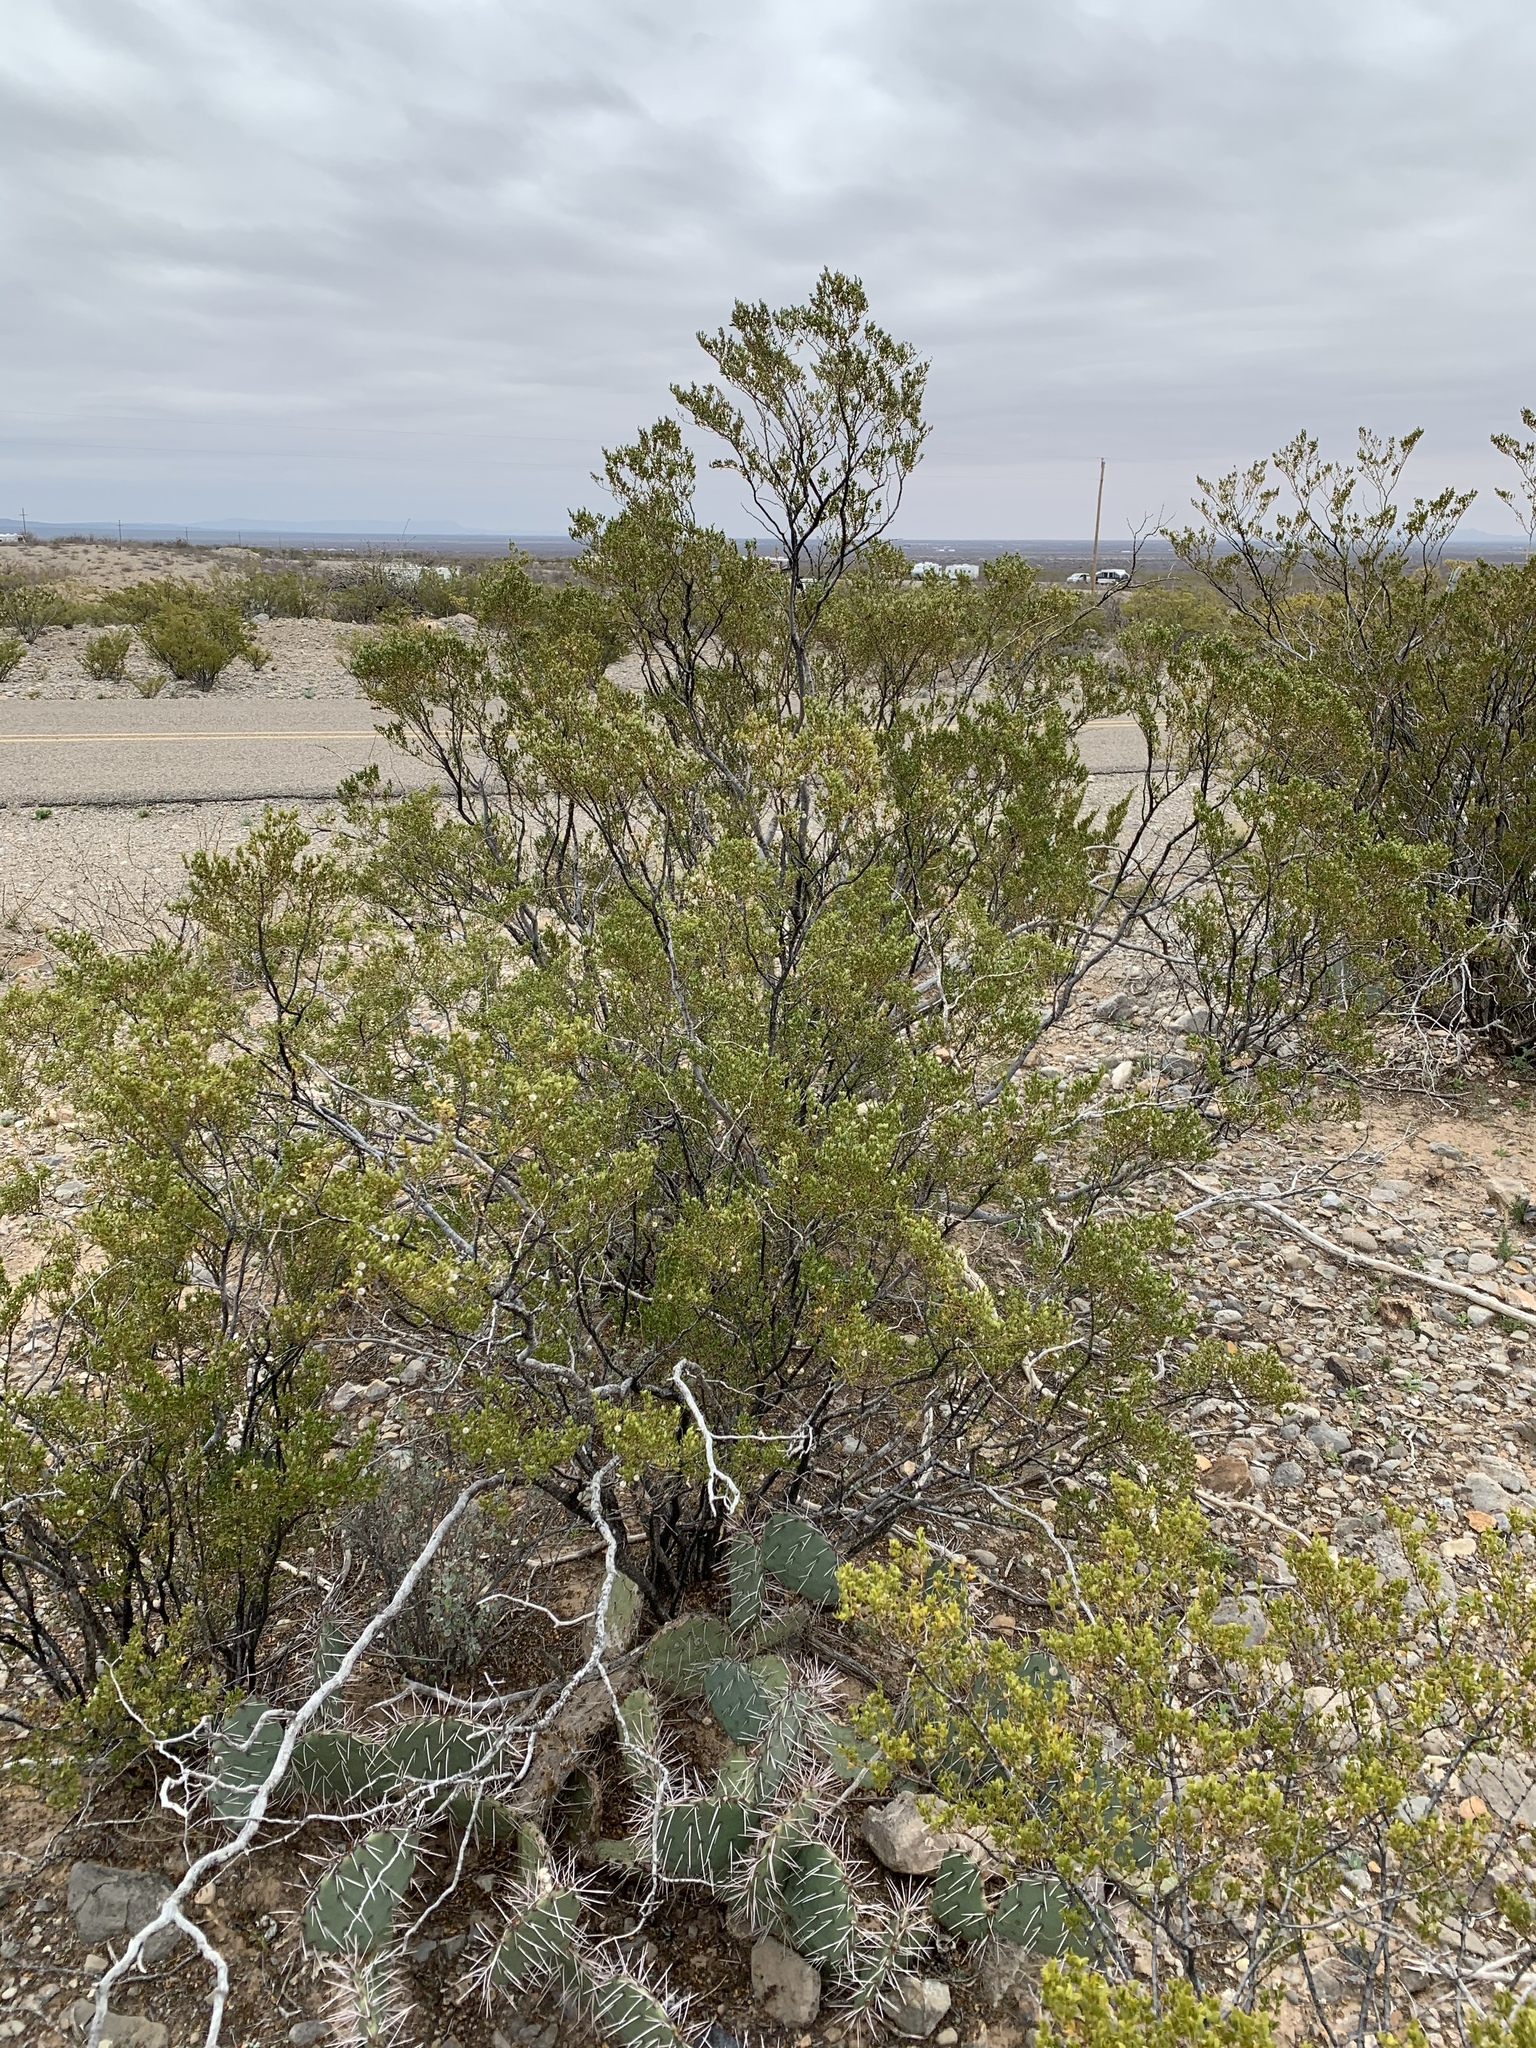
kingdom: Plantae
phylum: Tracheophyta
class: Magnoliopsida
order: Zygophyllales
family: Zygophyllaceae
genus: Larrea
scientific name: Larrea tridentata
